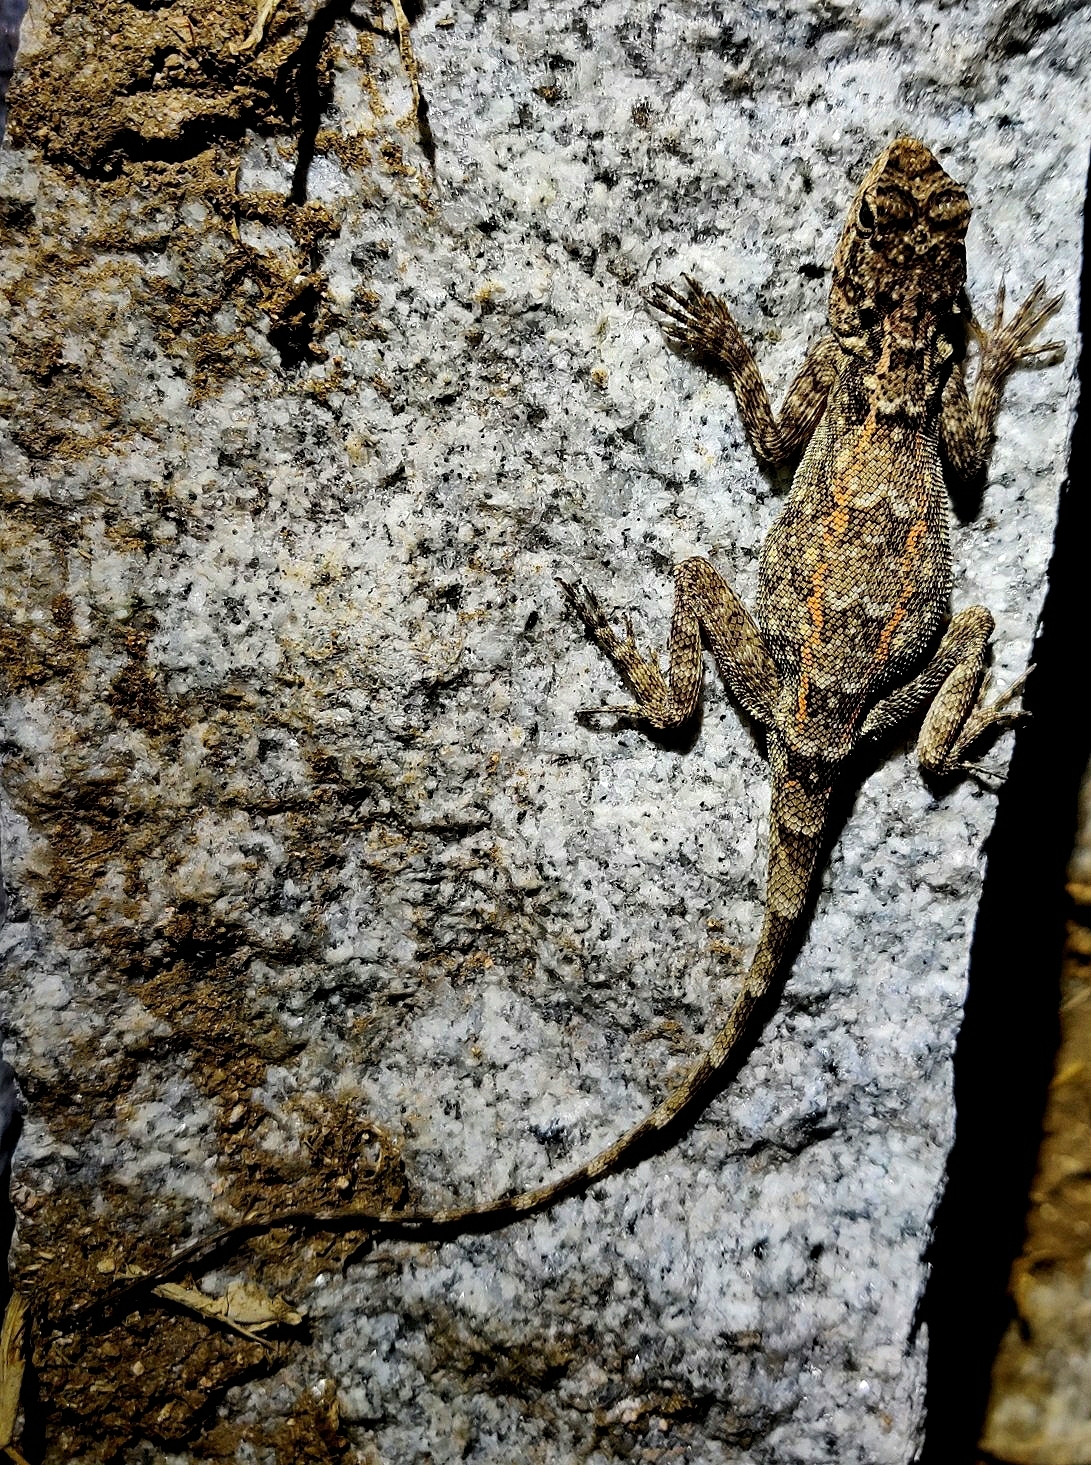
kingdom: Animalia
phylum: Chordata
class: Squamata
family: Agamidae
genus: Psammophilus
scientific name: Psammophilus dorsalis
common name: South indian rock agama
